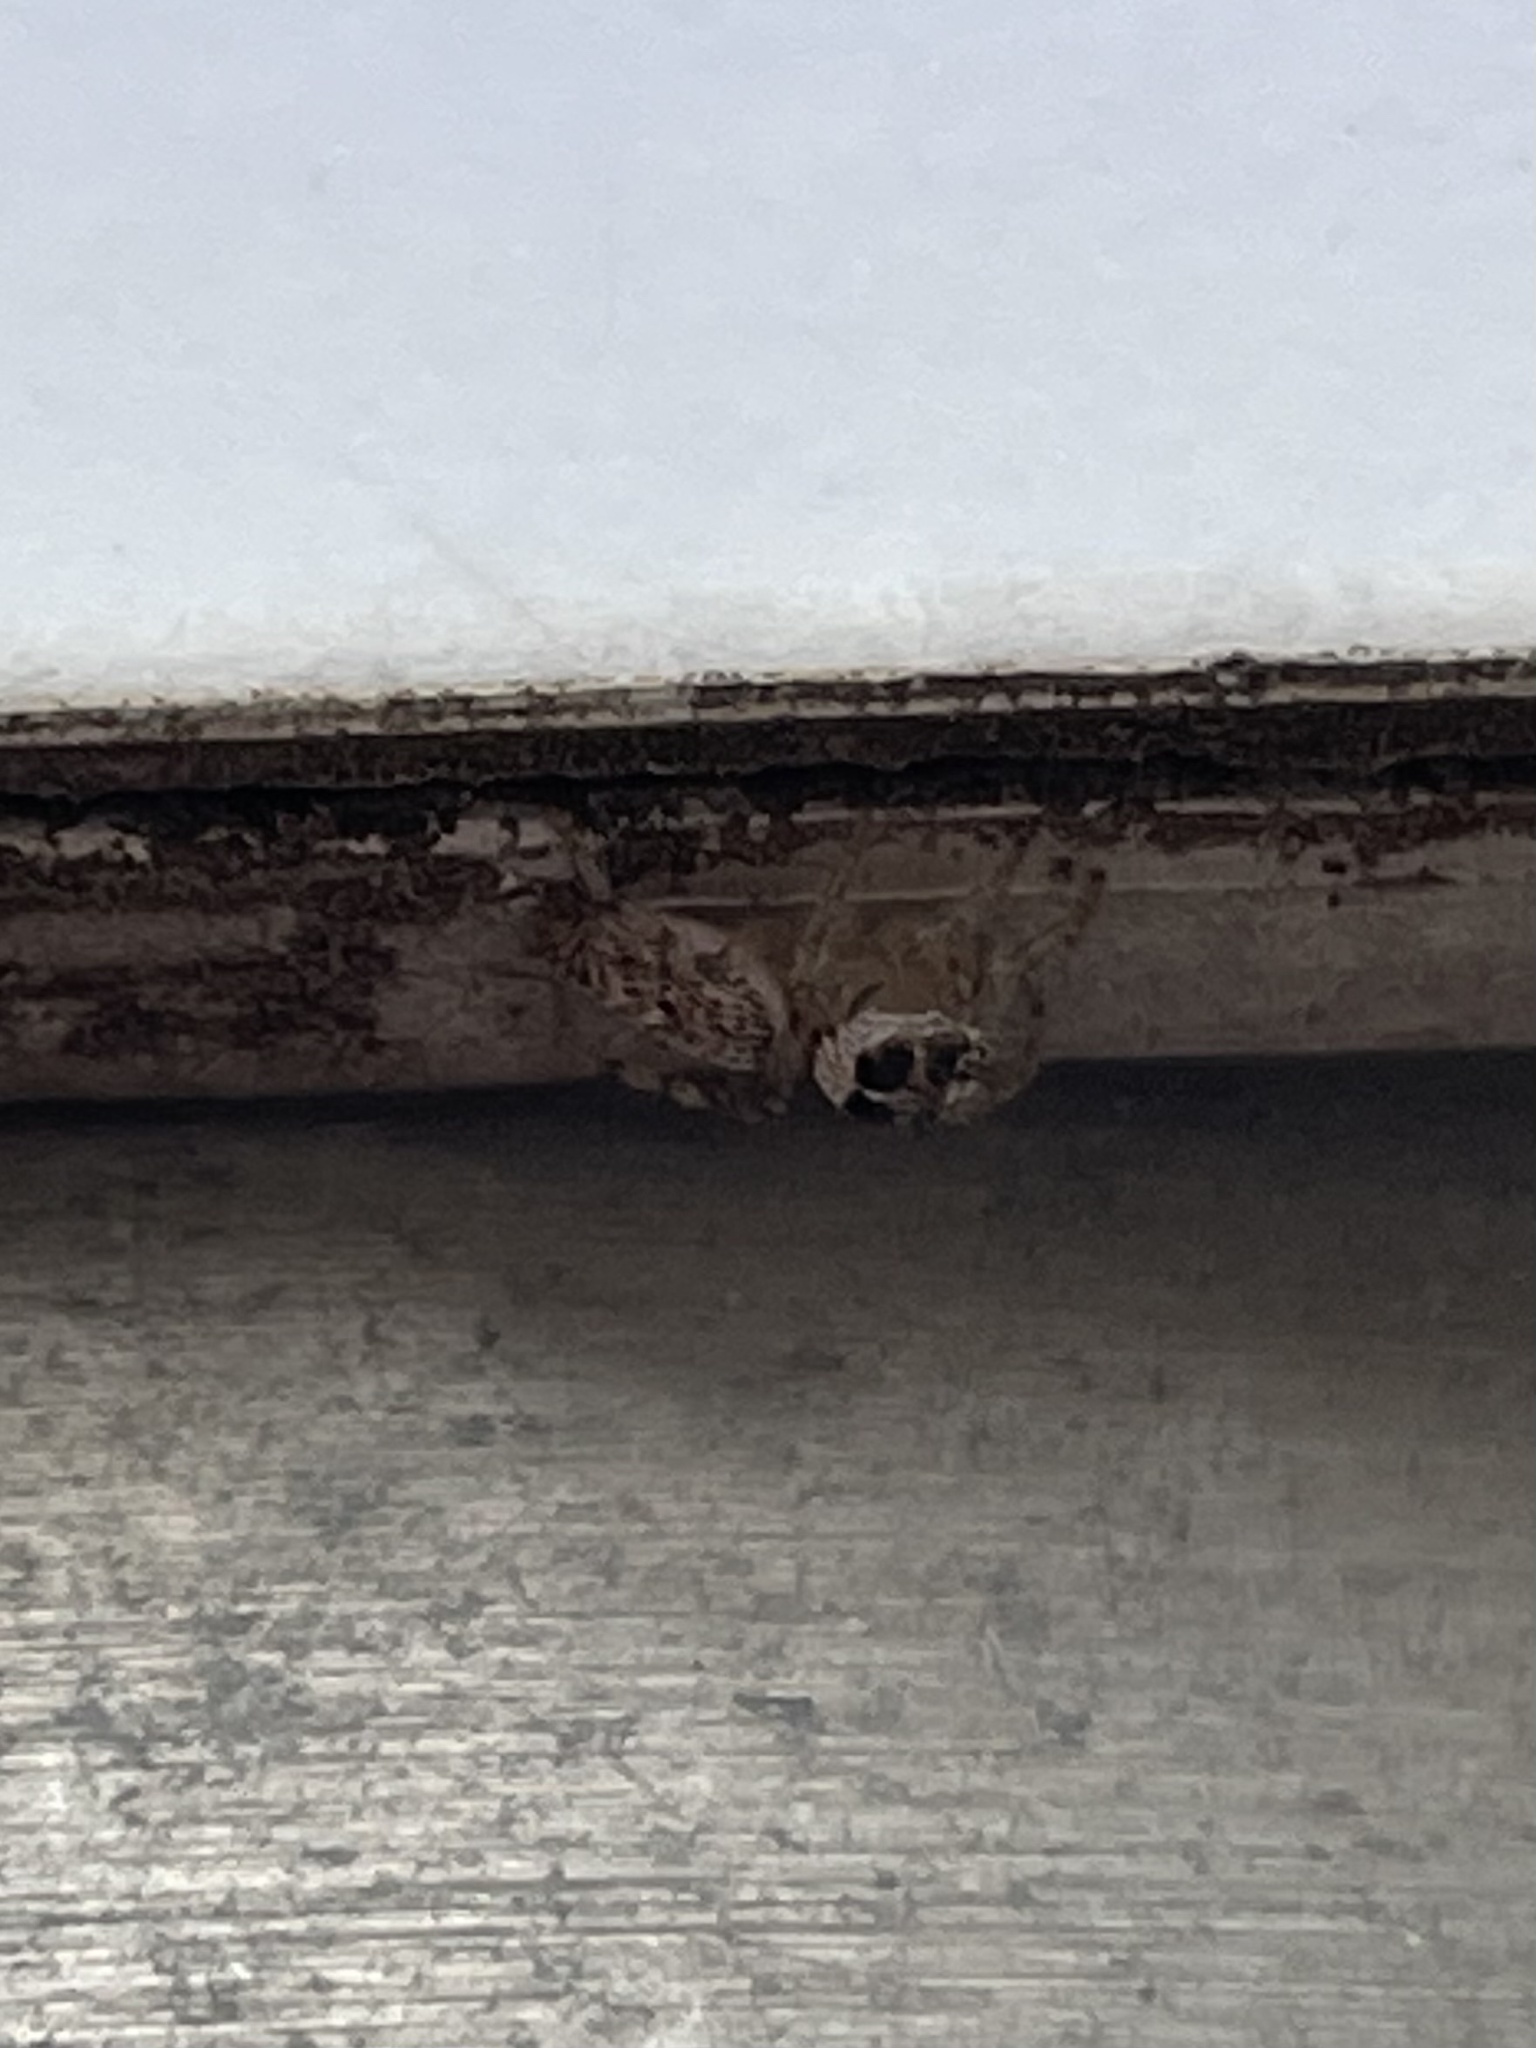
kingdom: Animalia
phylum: Arthropoda
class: Arachnida
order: Araneae
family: Salticidae
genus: Colonus
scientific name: Colonus hesperus
